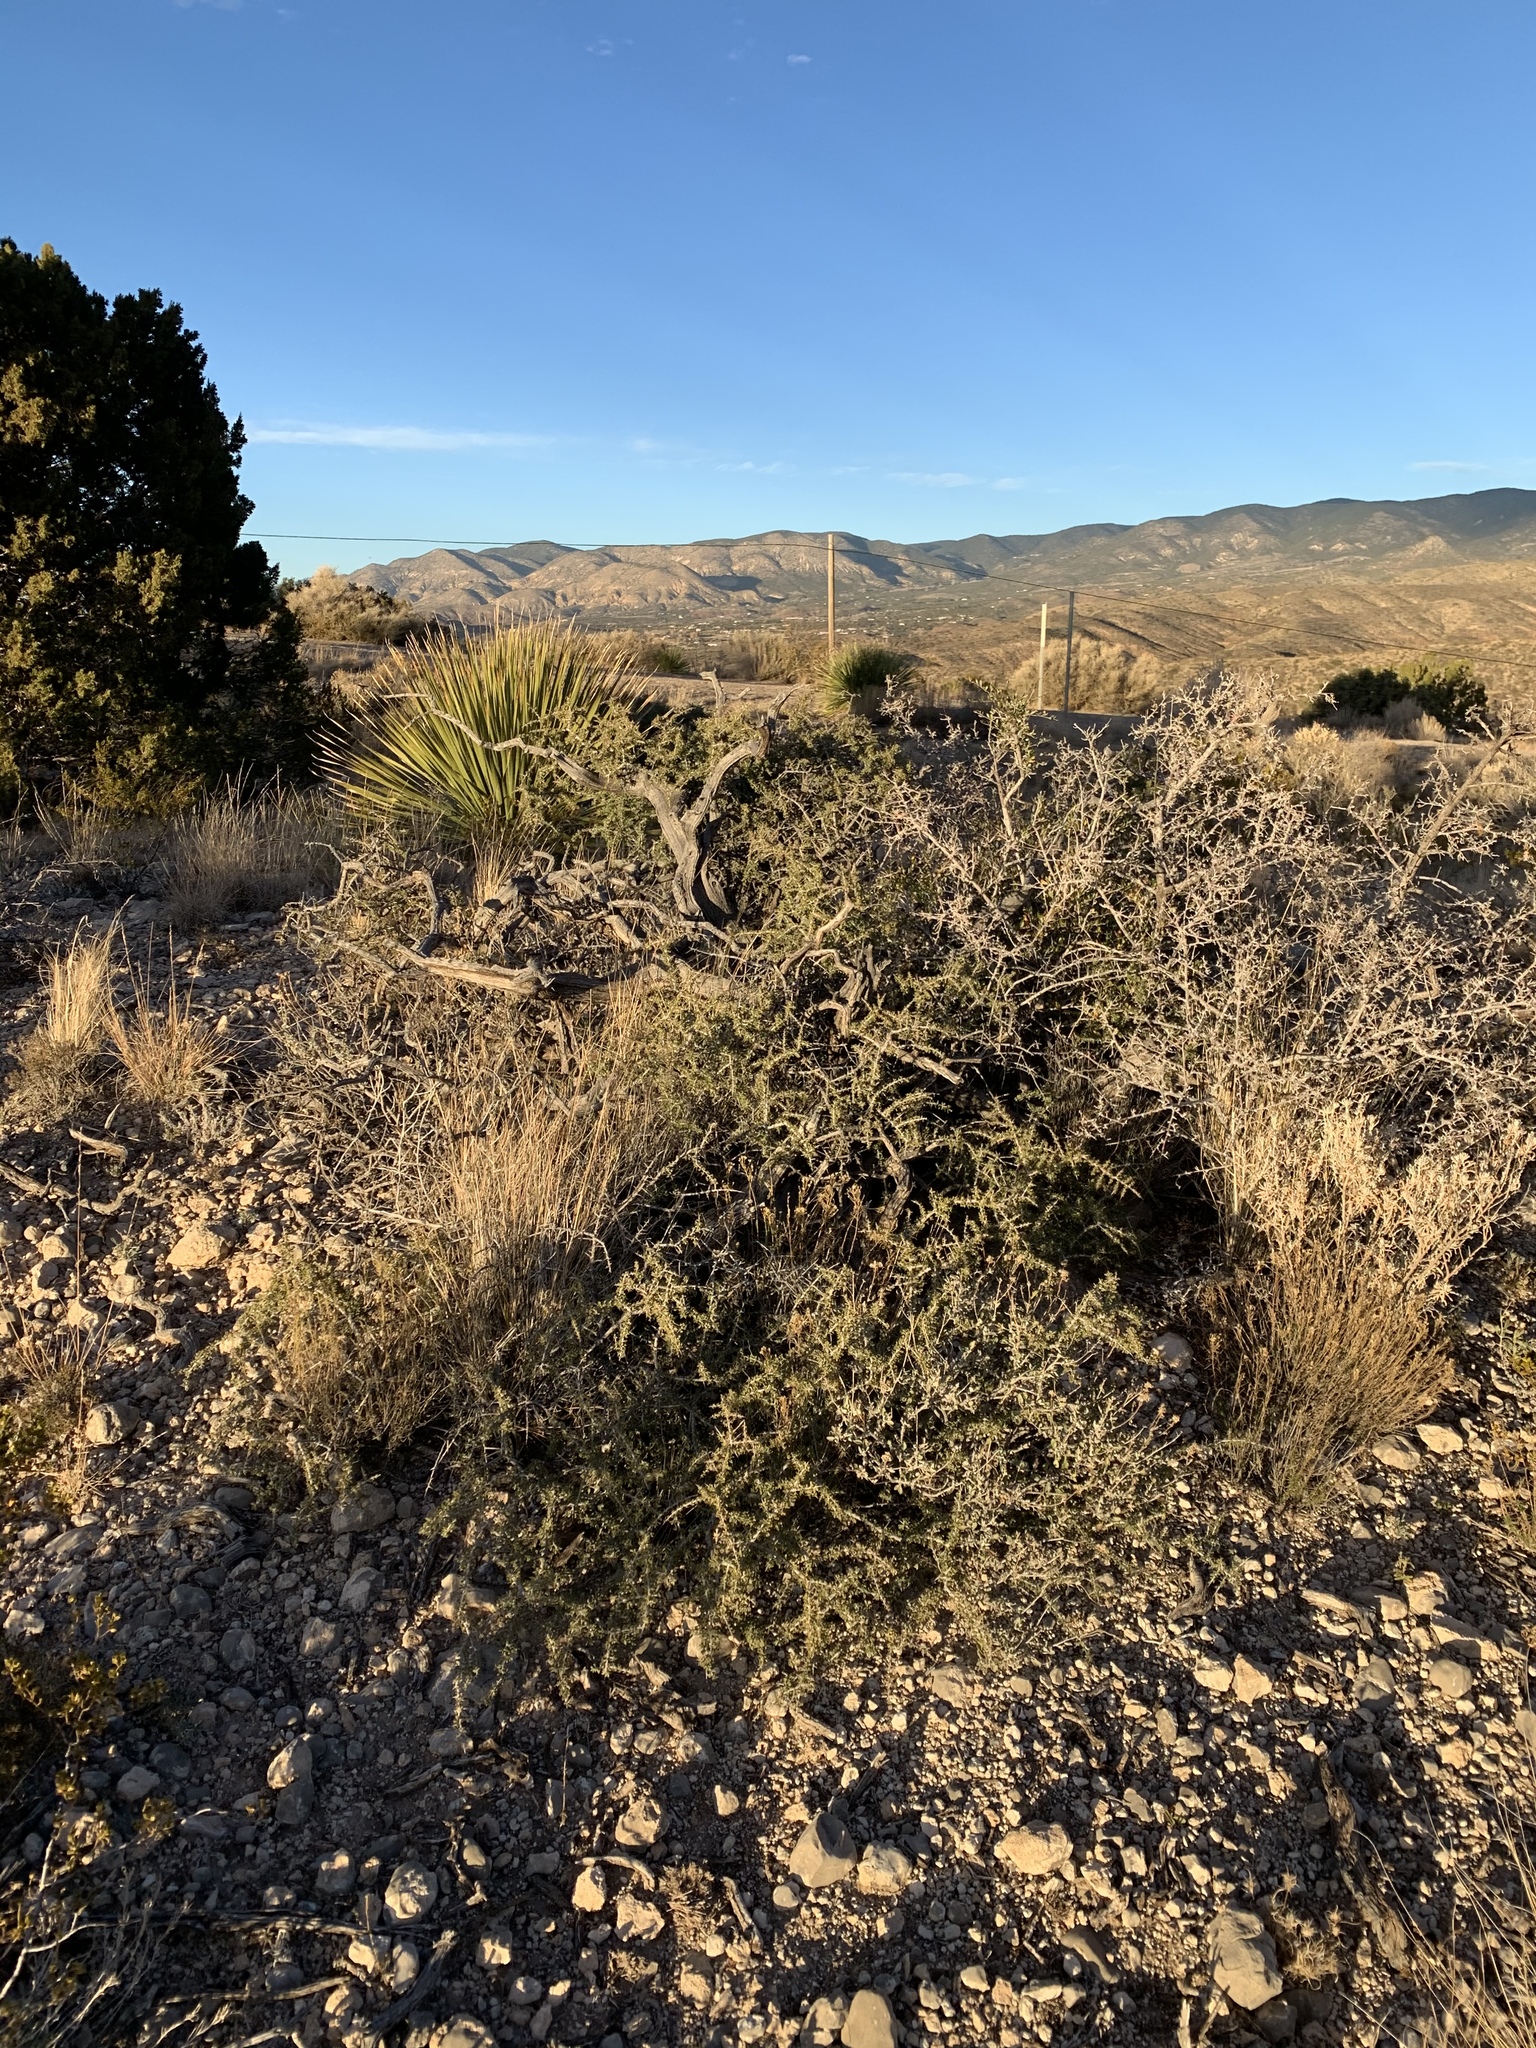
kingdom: Plantae
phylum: Tracheophyta
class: Magnoliopsida
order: Rosales
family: Rhamnaceae
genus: Condalia
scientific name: Condalia warnockii
